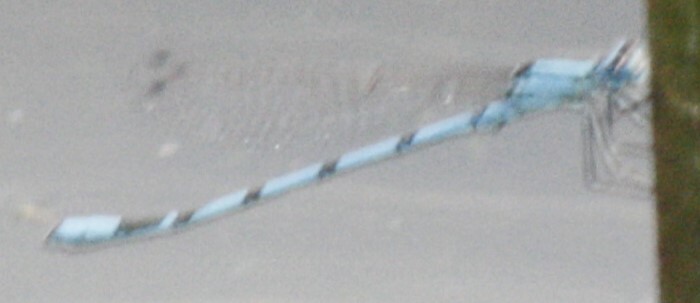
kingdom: Animalia
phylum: Arthropoda
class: Insecta
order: Odonata
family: Coenagrionidae
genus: Enallagma
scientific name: Enallagma cyathigerum
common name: Common blue damselfly
